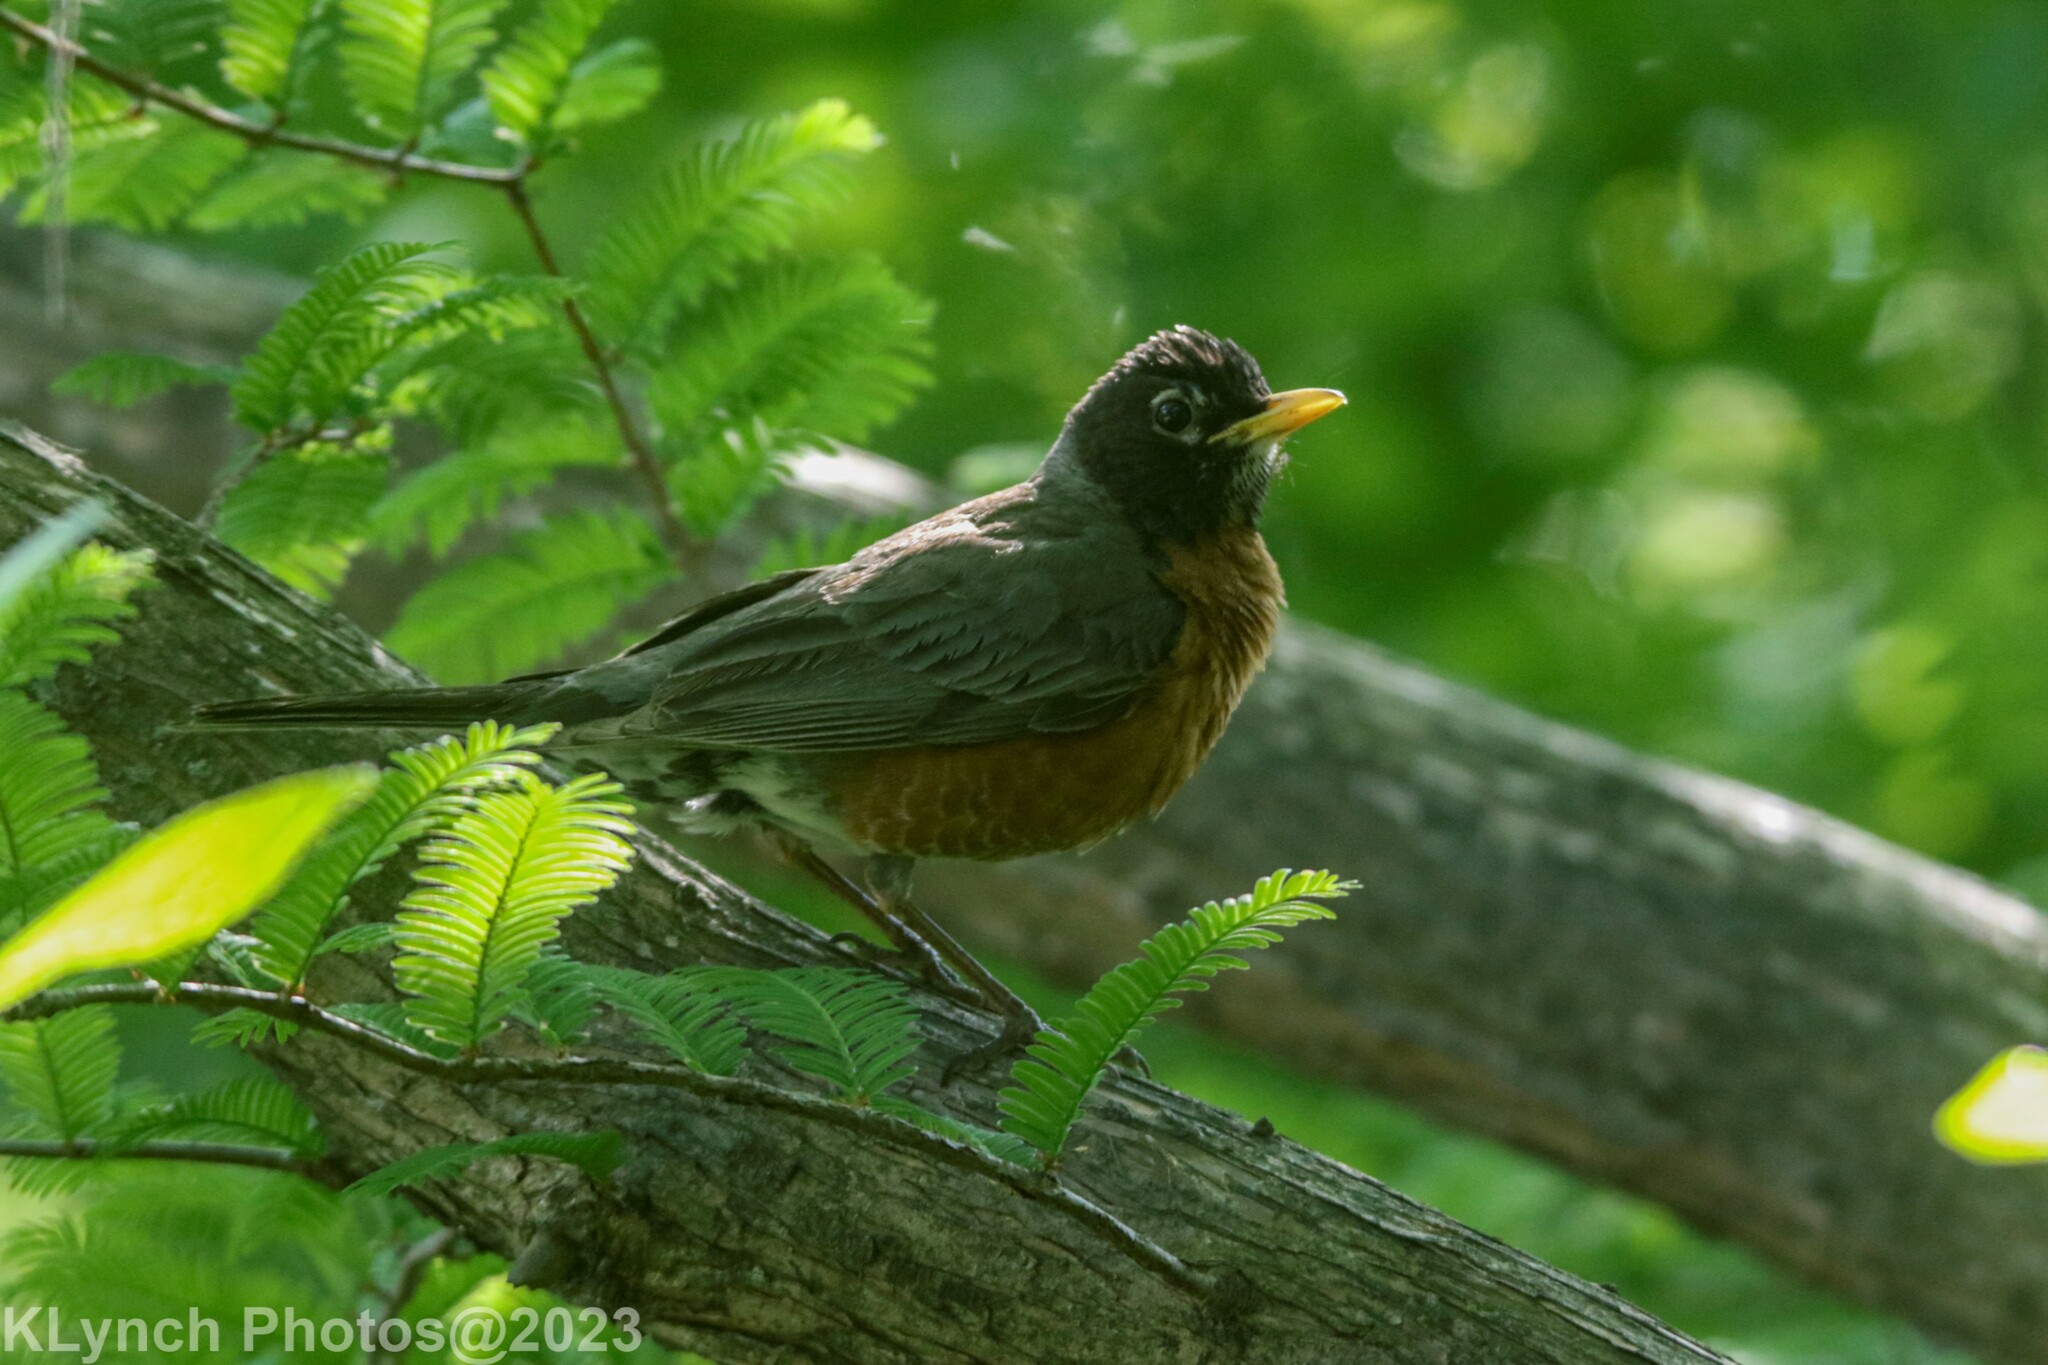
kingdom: Animalia
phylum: Chordata
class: Aves
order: Passeriformes
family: Turdidae
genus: Turdus
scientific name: Turdus migratorius
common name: American robin
